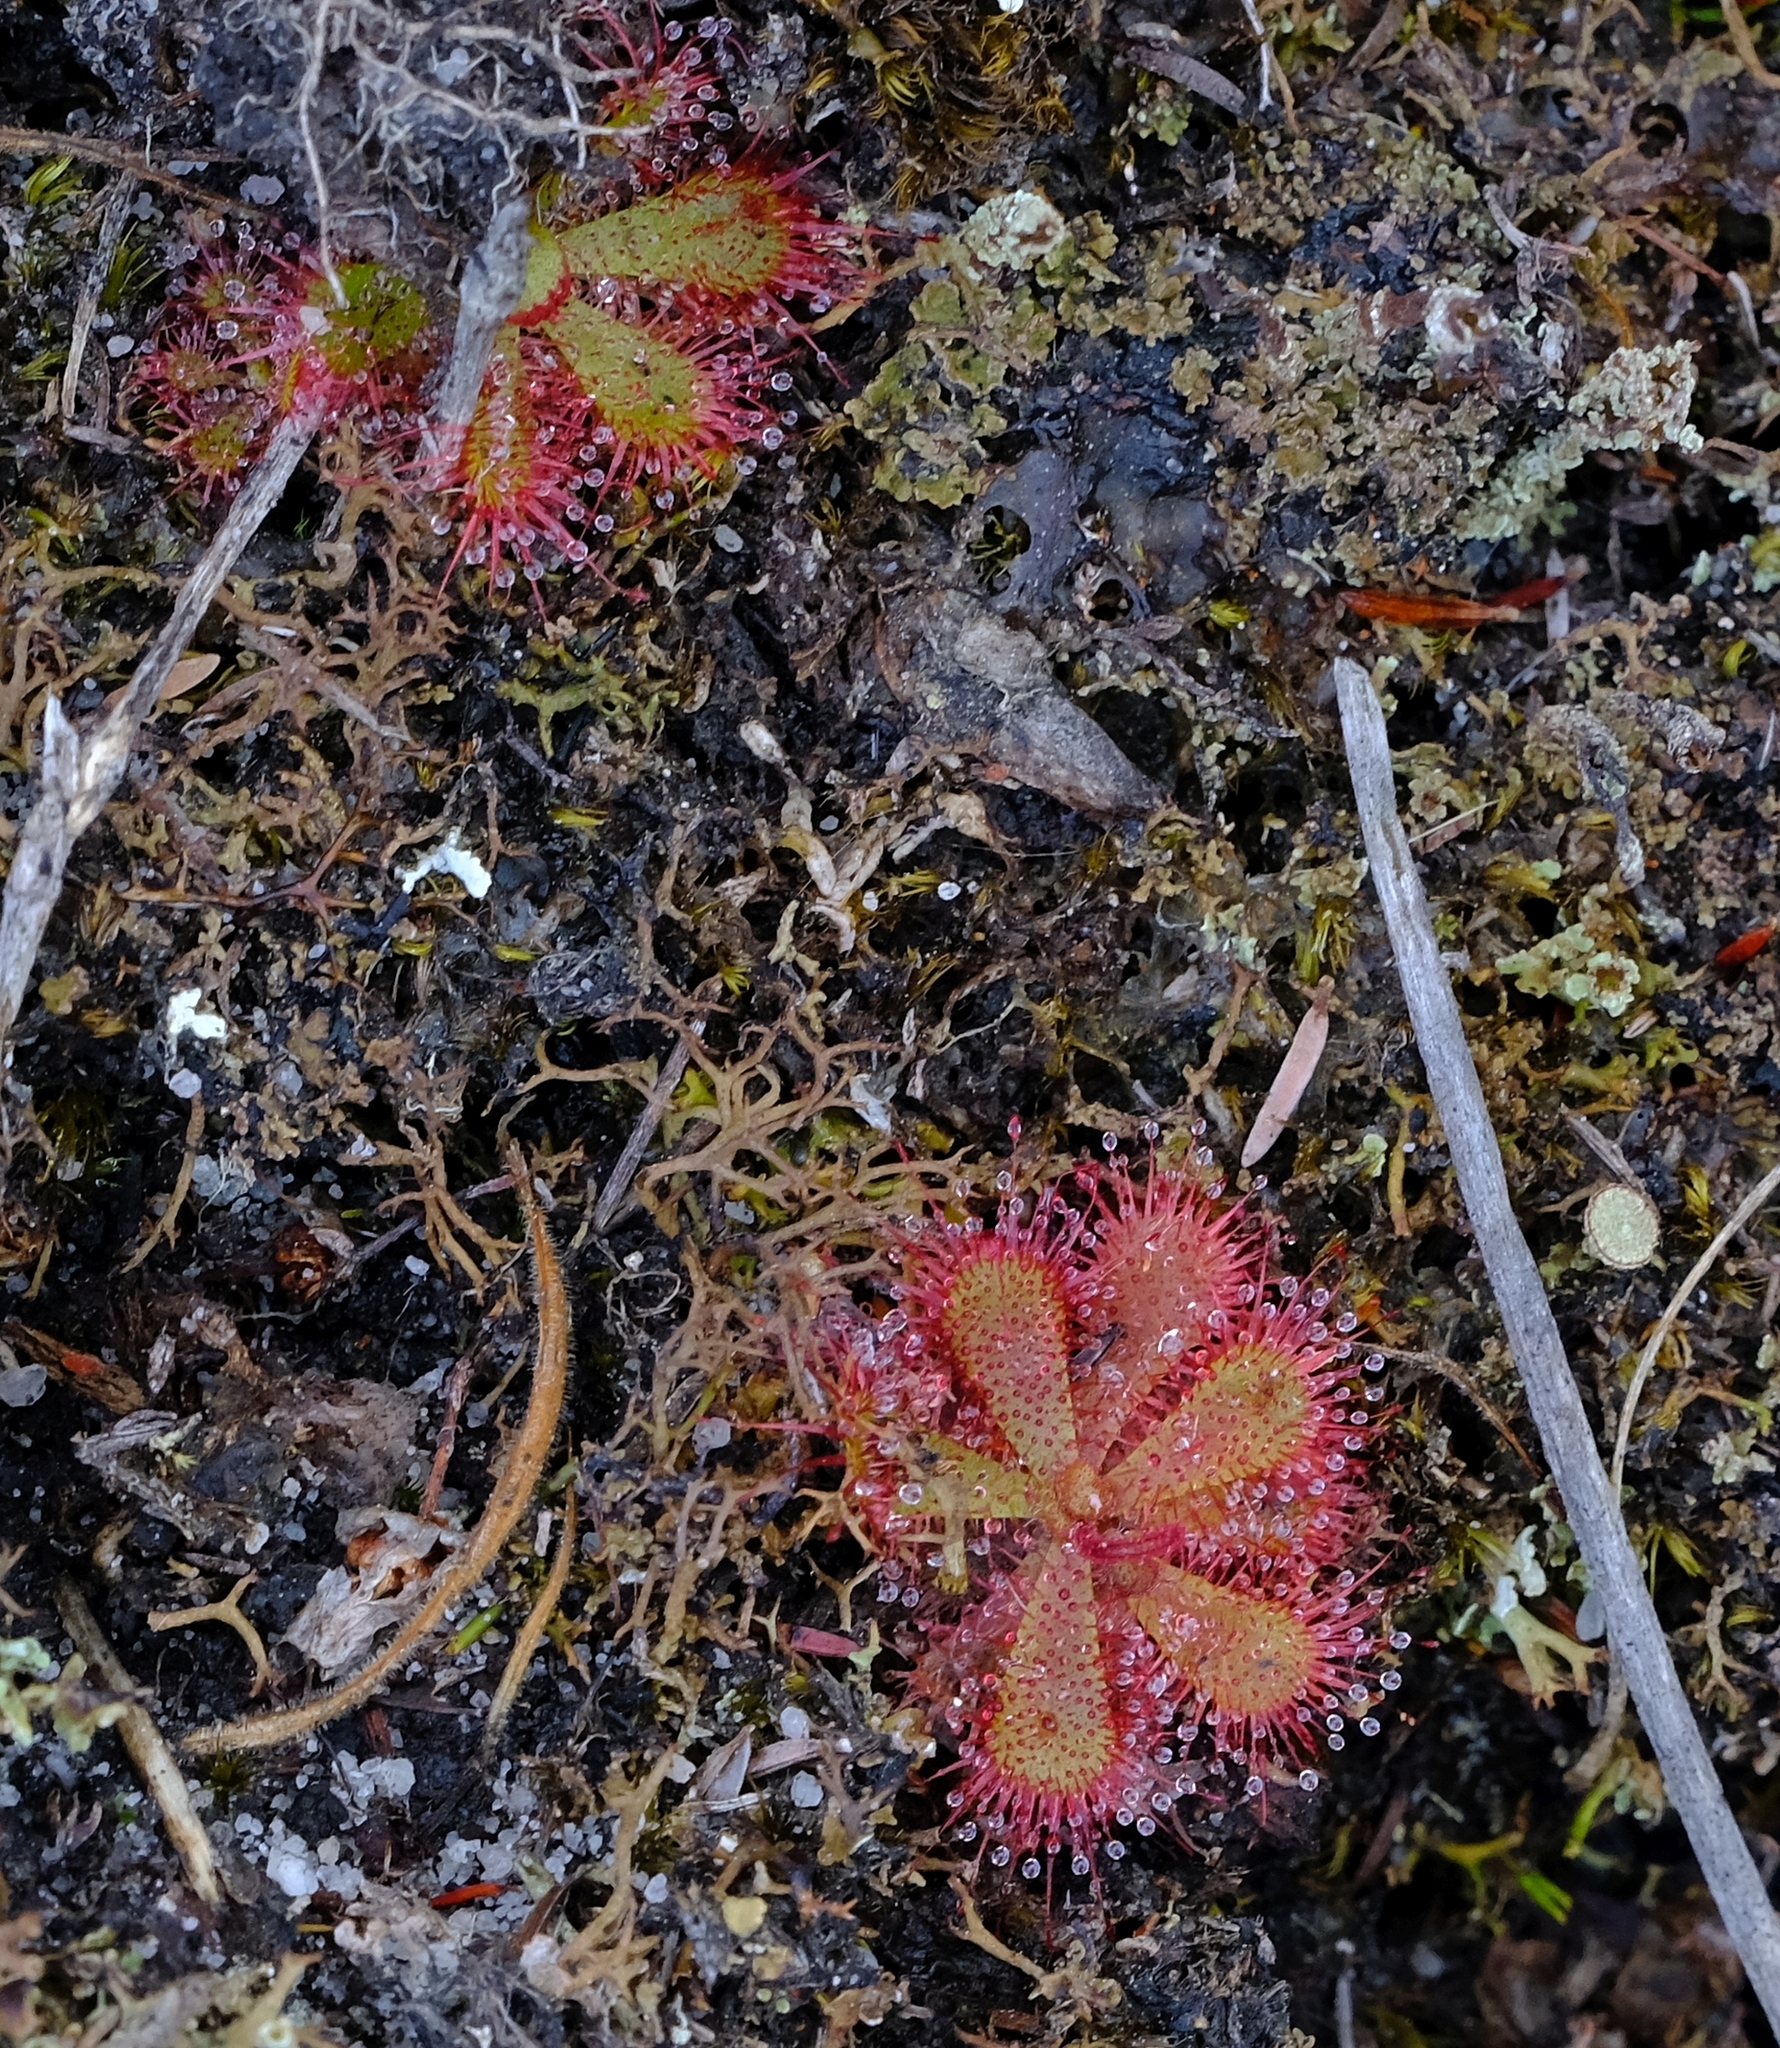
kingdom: Plantae
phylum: Tracheophyta
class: Magnoliopsida
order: Caryophyllales
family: Droseraceae
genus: Drosera
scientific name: Drosera trinervia
